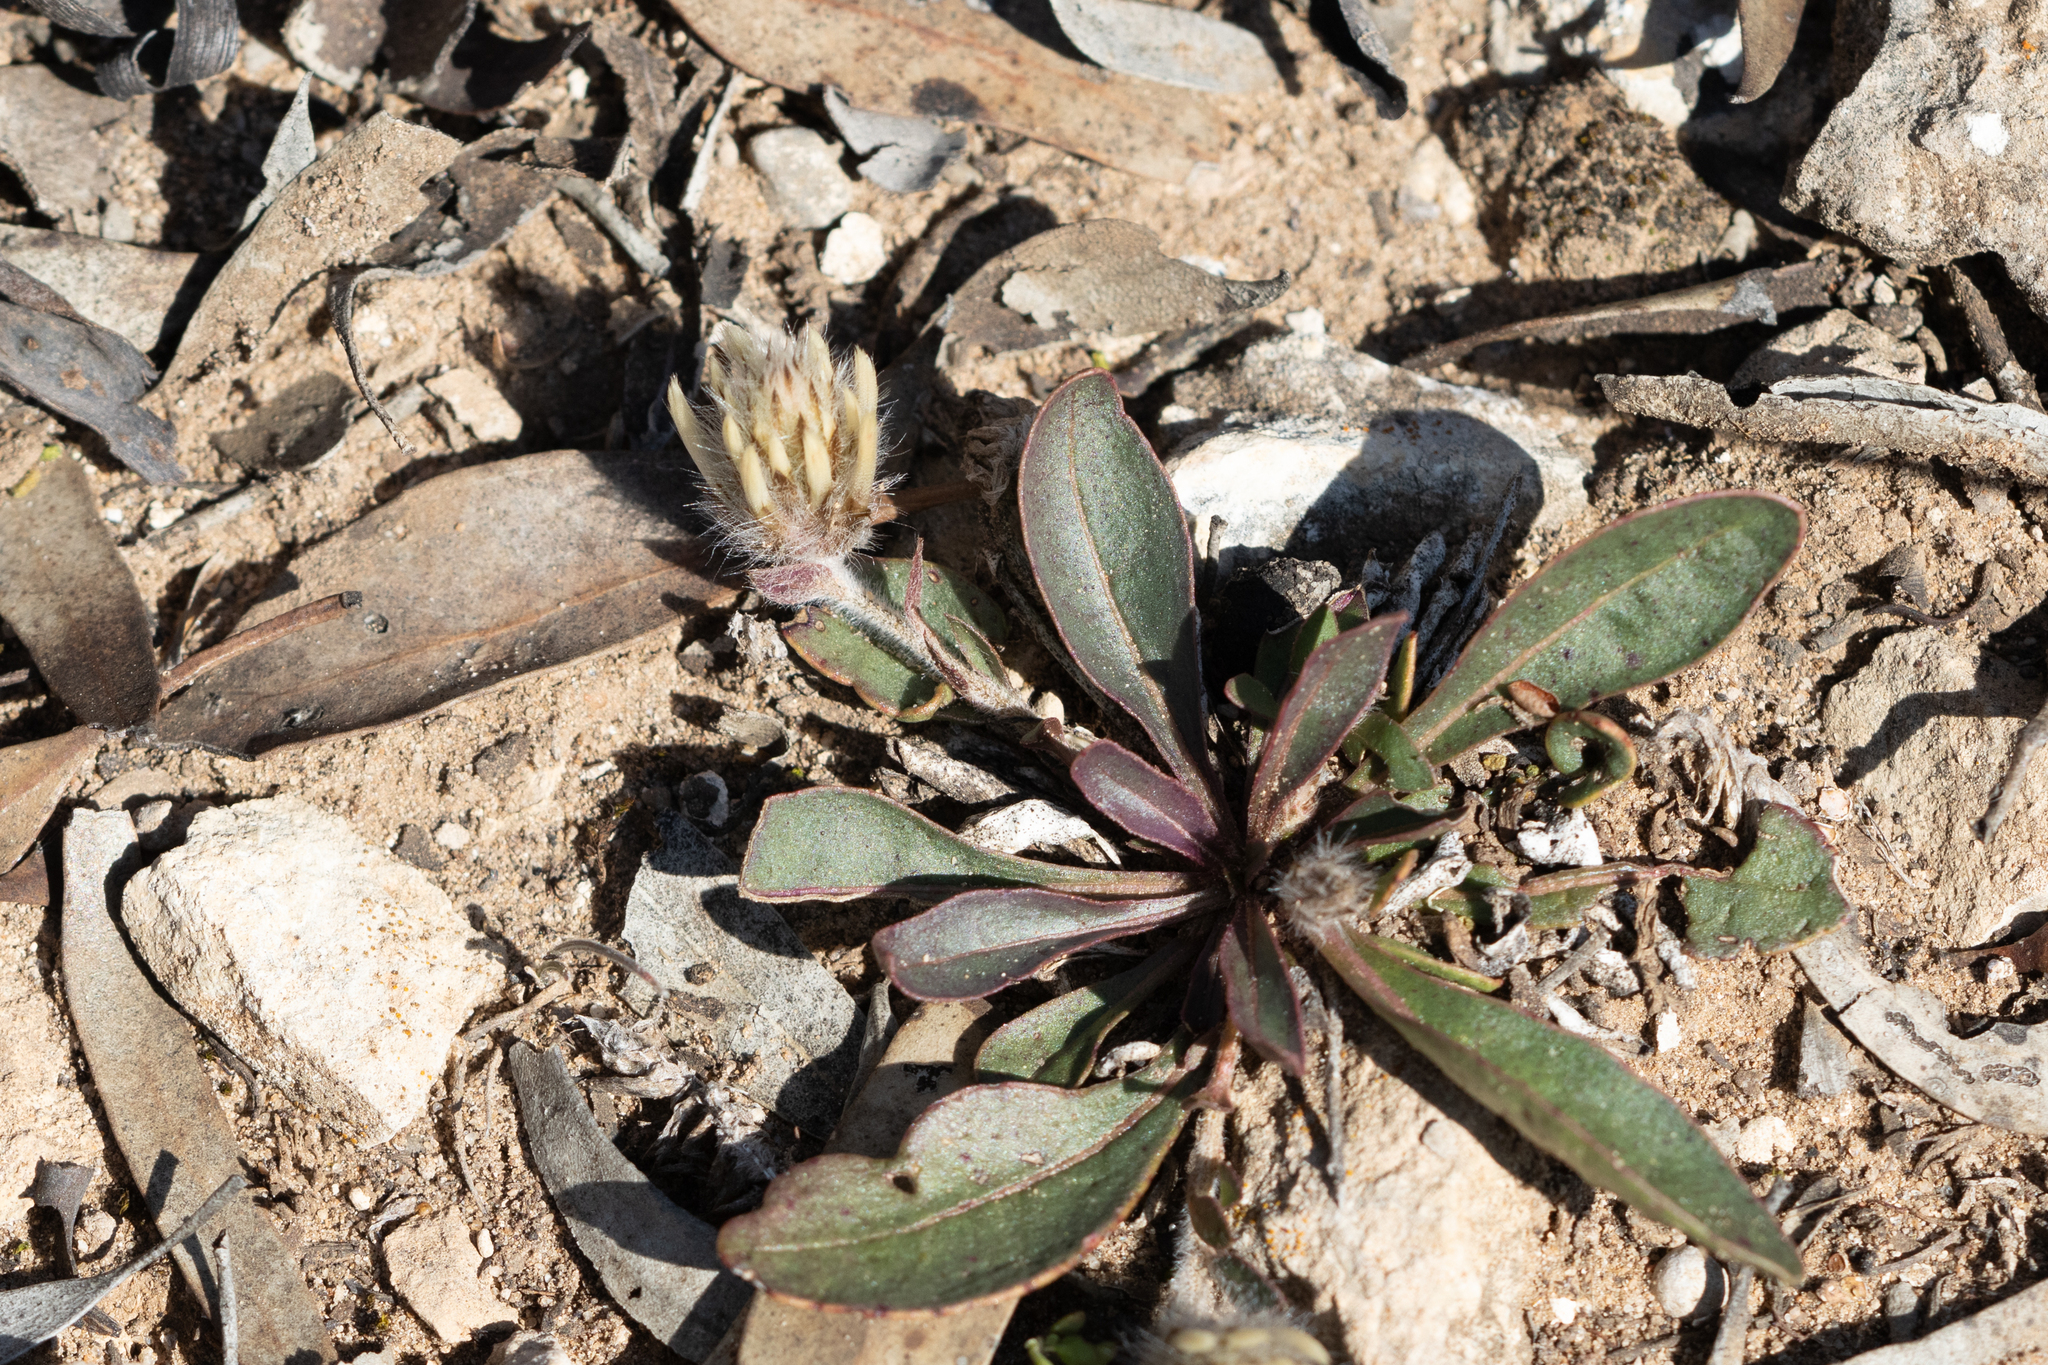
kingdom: Plantae
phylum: Tracheophyta
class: Magnoliopsida
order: Caryophyllales
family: Amaranthaceae
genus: Ptilotus
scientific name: Ptilotus seminudus
